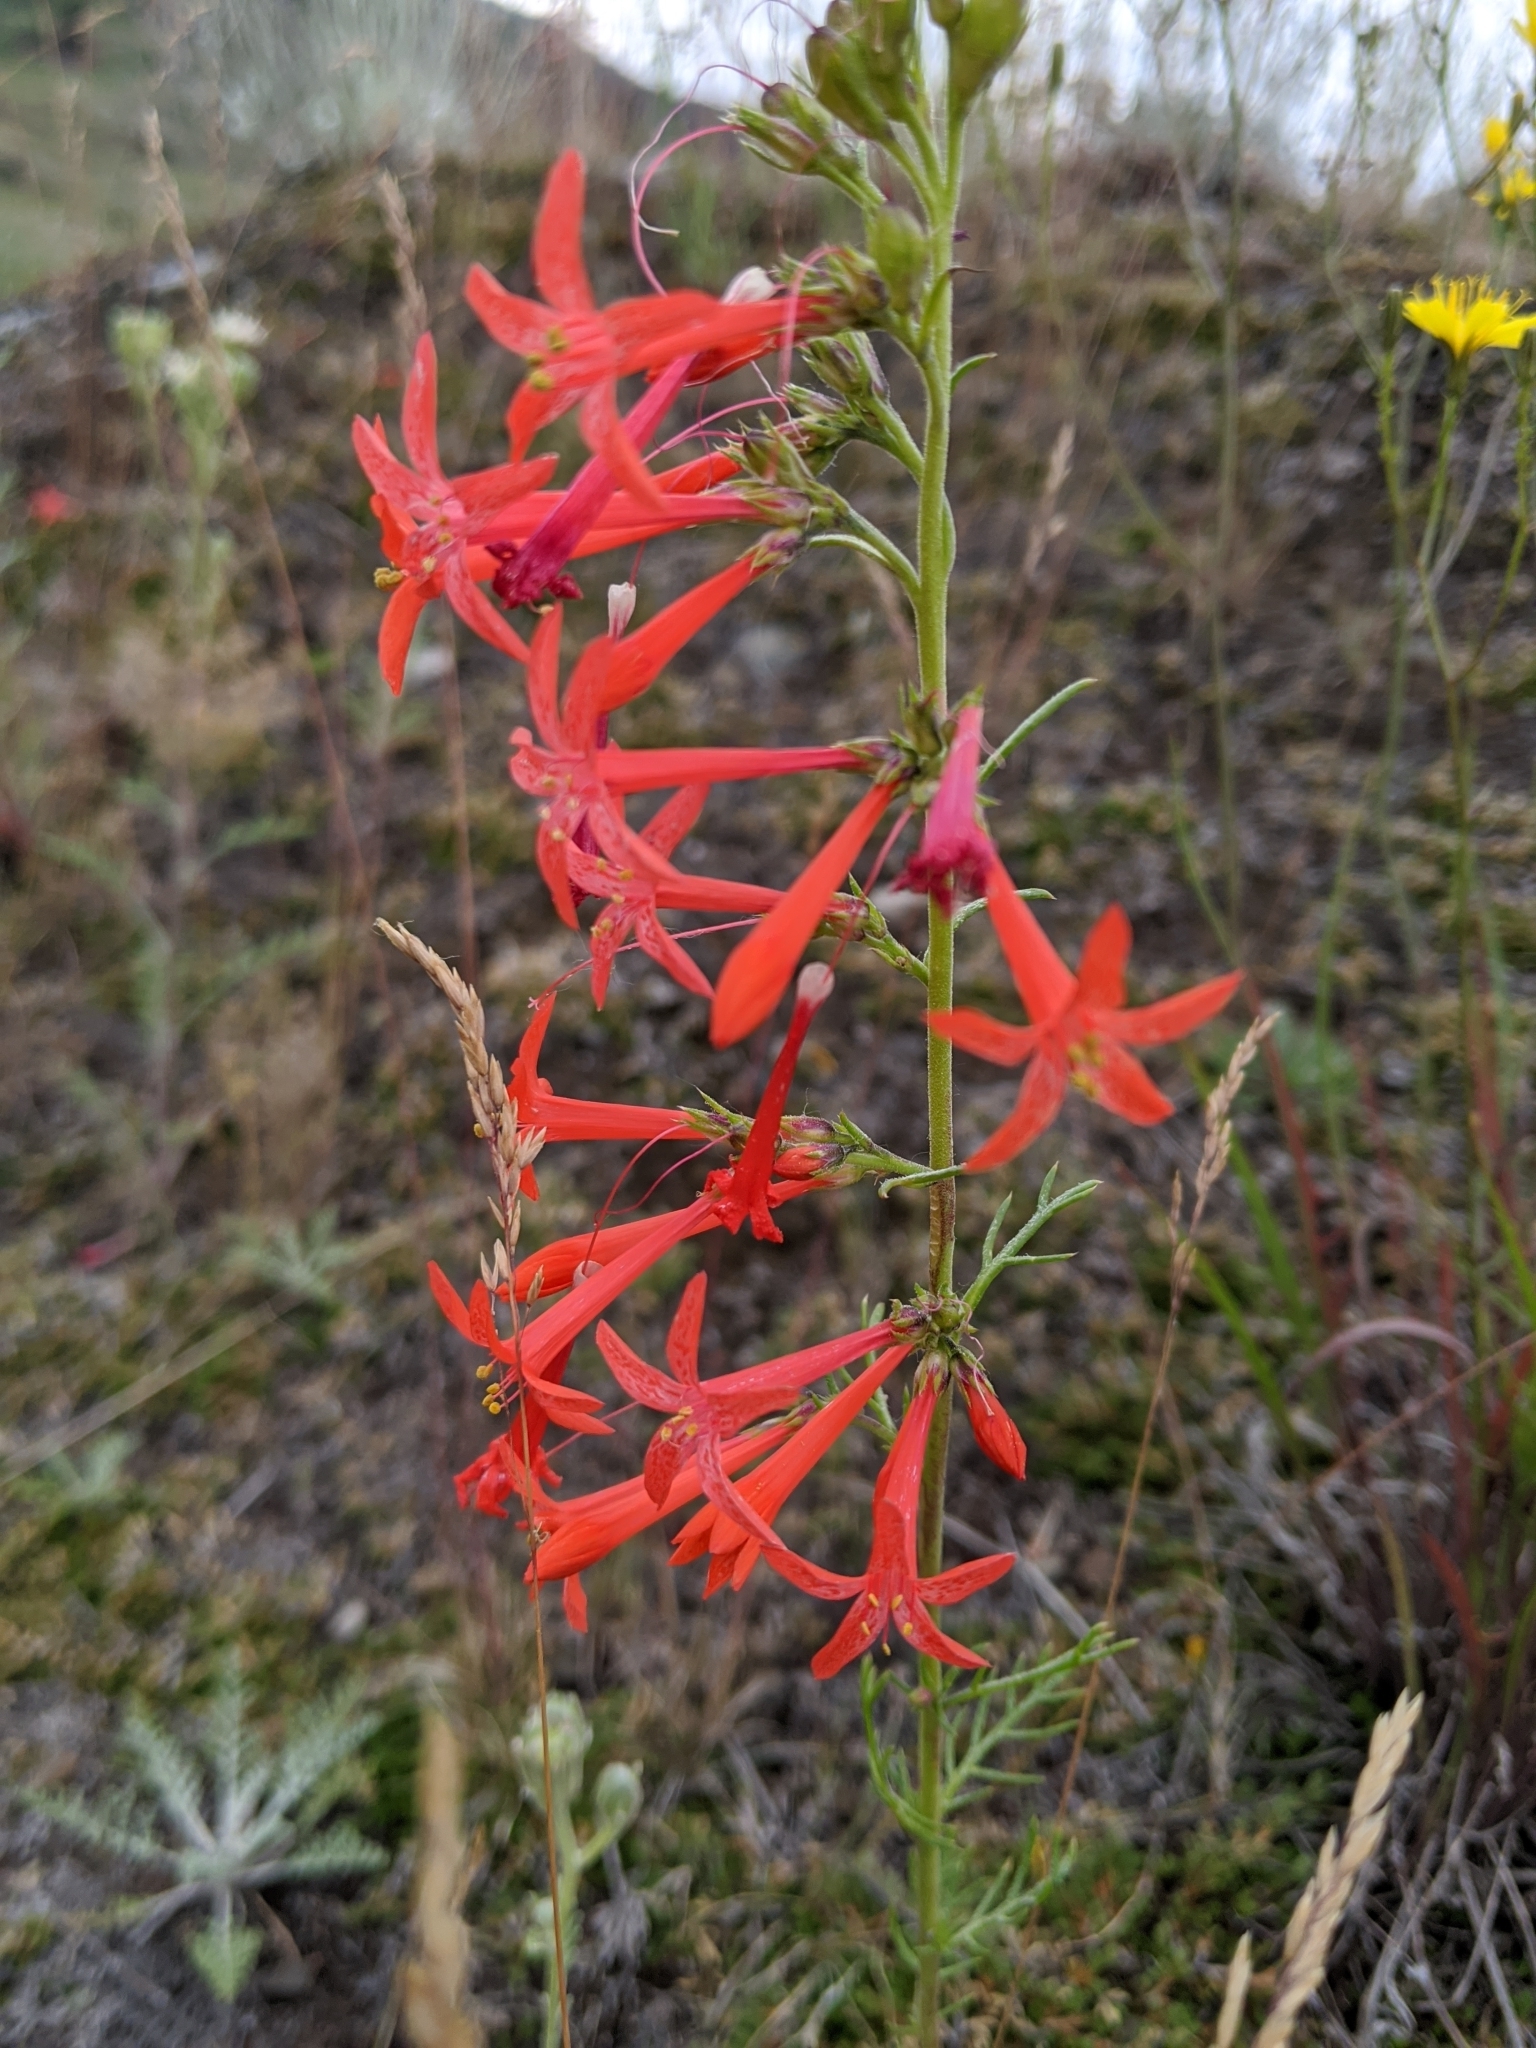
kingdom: Plantae
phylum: Tracheophyta
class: Magnoliopsida
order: Ericales
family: Polemoniaceae
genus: Ipomopsis
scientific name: Ipomopsis aggregata
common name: Scarlet gilia
